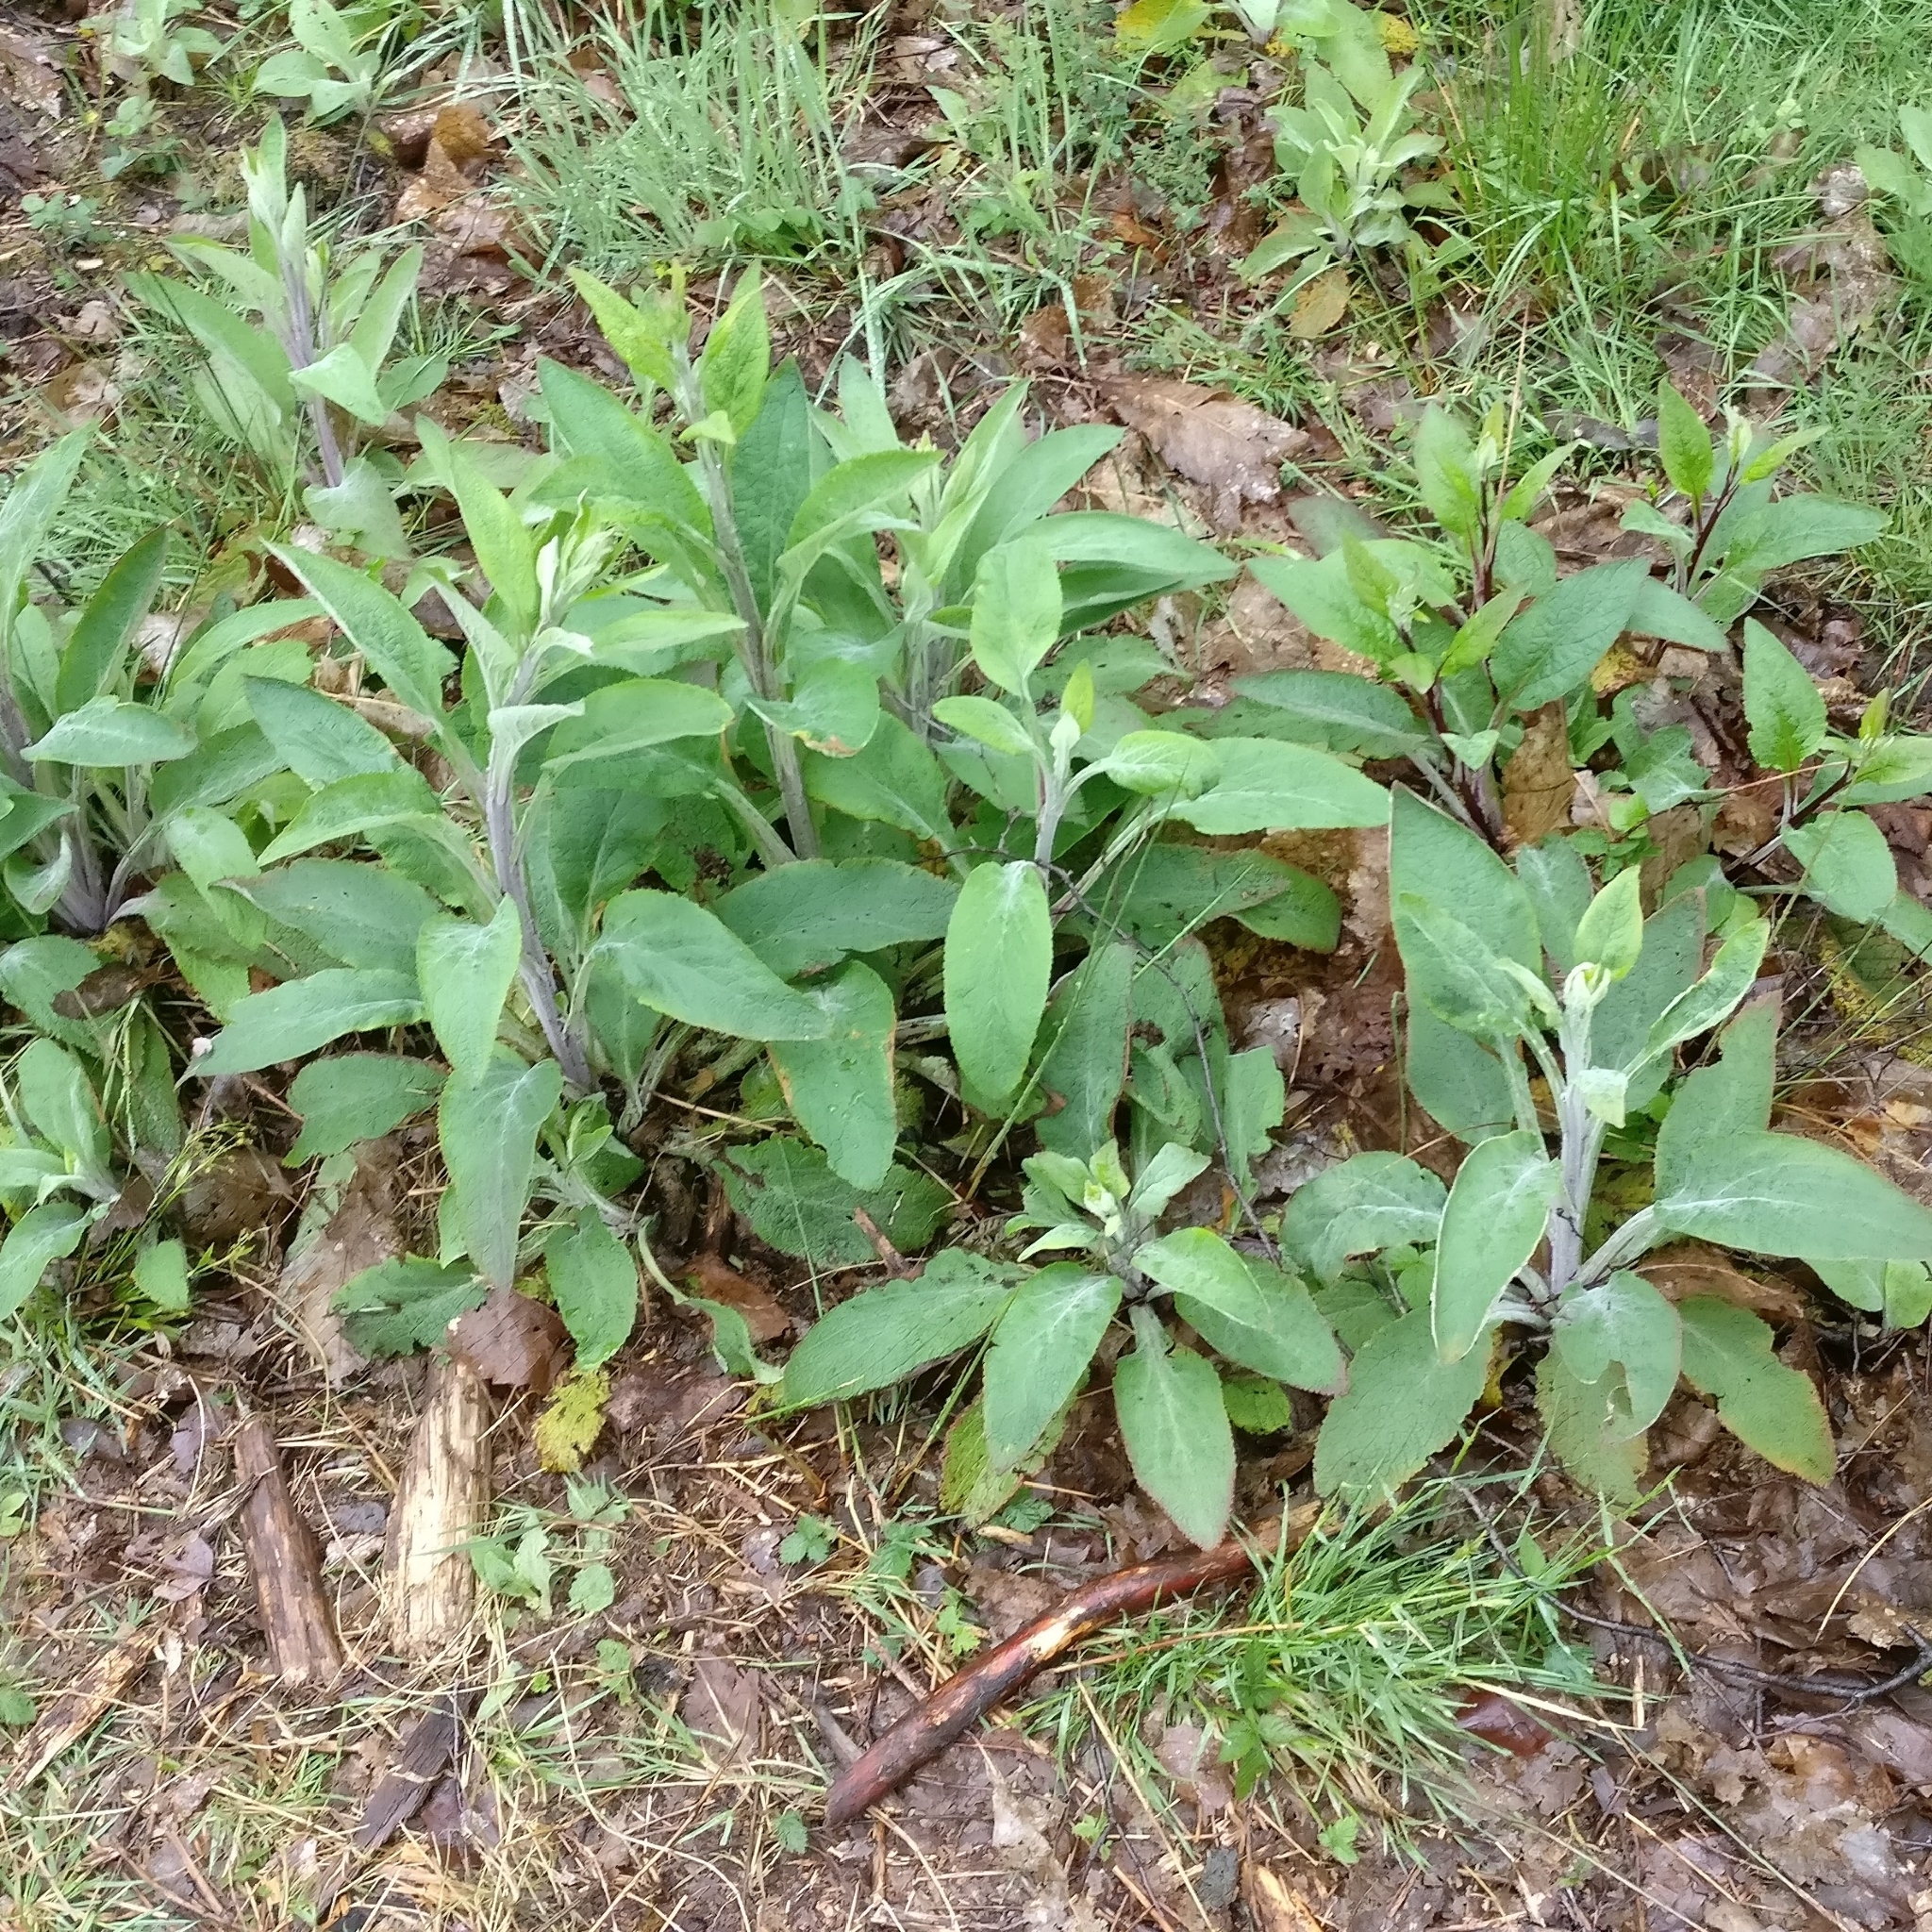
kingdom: Plantae
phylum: Tracheophyta
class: Magnoliopsida
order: Lamiales
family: Plantaginaceae
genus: Digitalis
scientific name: Digitalis purpurea
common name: Foxglove
